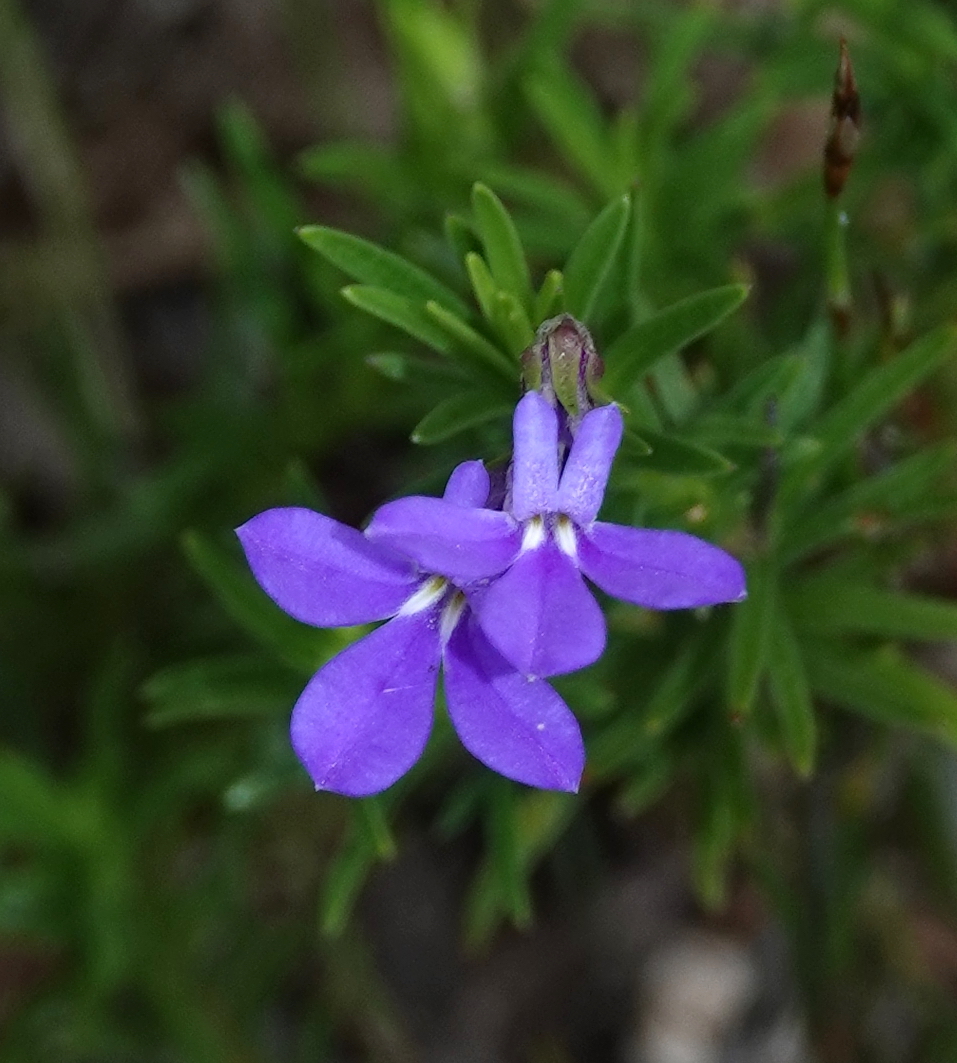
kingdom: Plantae
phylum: Tracheophyta
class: Magnoliopsida
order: Asterales
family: Campanulaceae
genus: Lobelia
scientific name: Lobelia pinifolia
